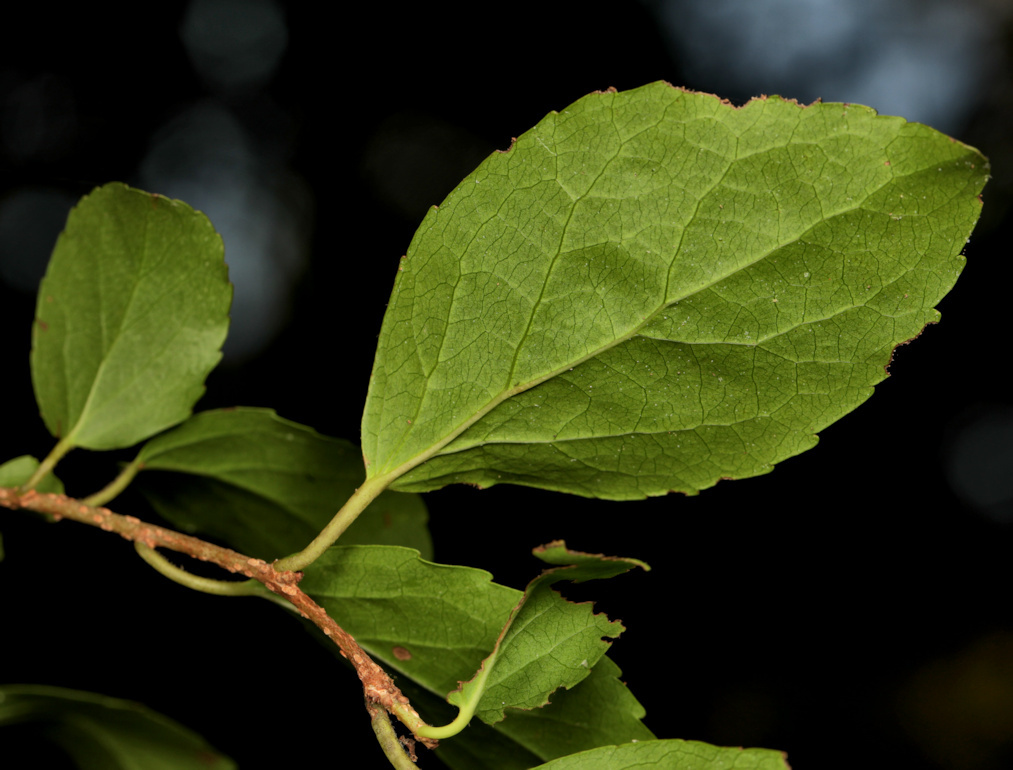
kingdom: Plantae
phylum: Tracheophyta
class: Magnoliopsida
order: Malpighiales
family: Salicaceae
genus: Flacourtia
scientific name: Flacourtia indica
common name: Governor's plum
